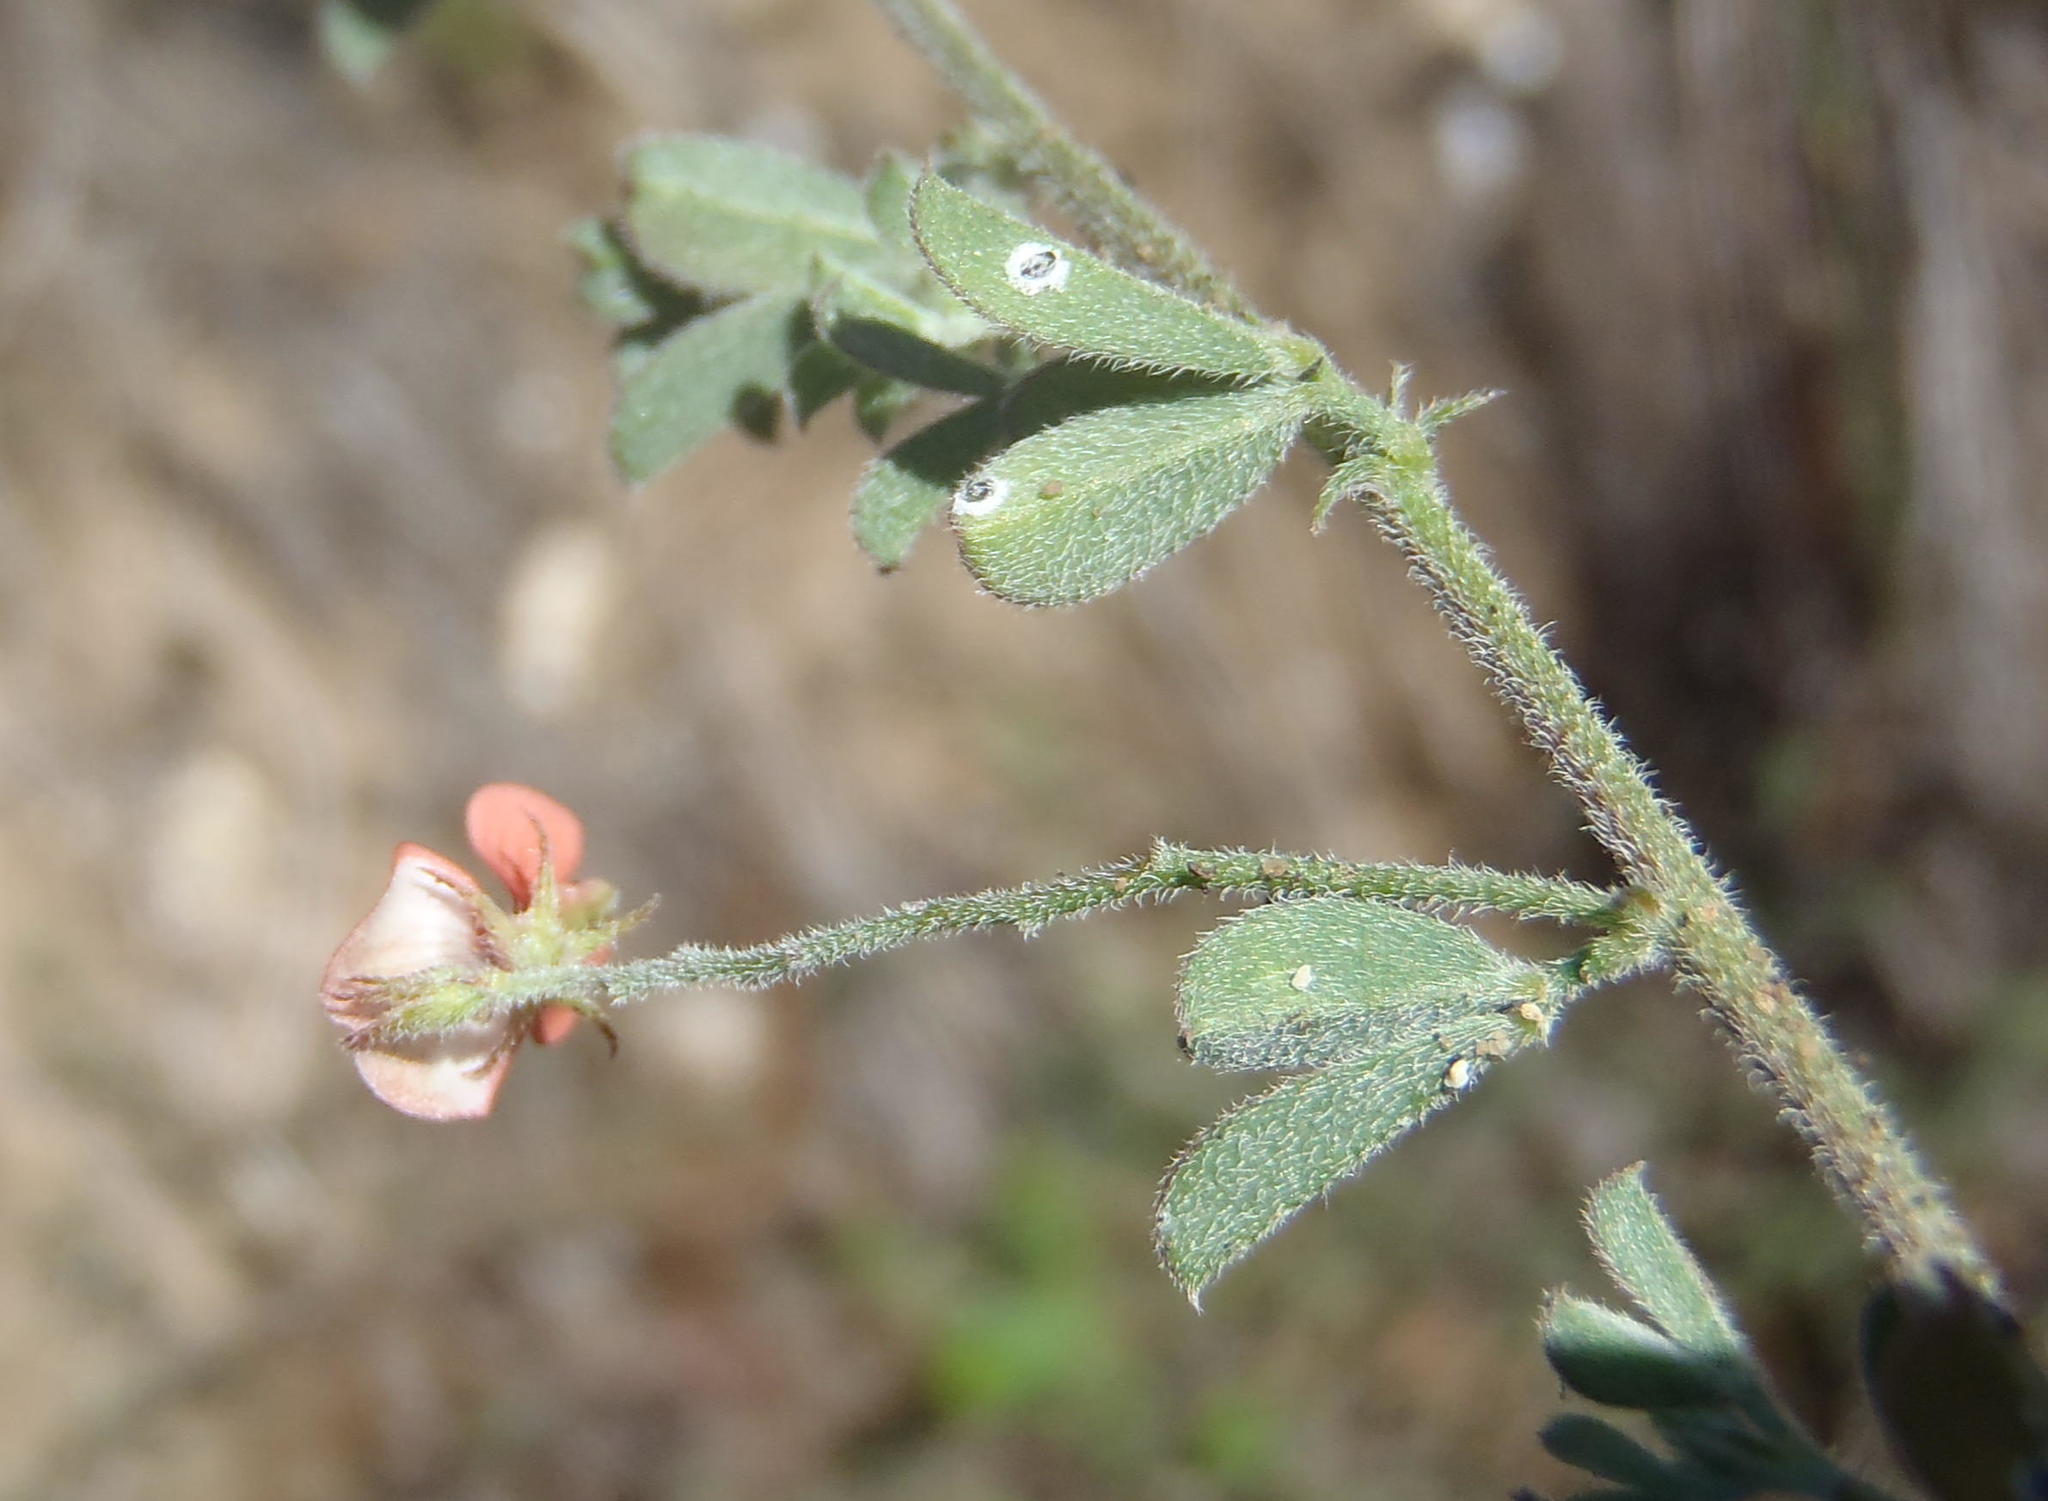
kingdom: Plantae
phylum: Tracheophyta
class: Magnoliopsida
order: Fabales
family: Fabaceae
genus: Indigofera
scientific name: Indigofera priorii
